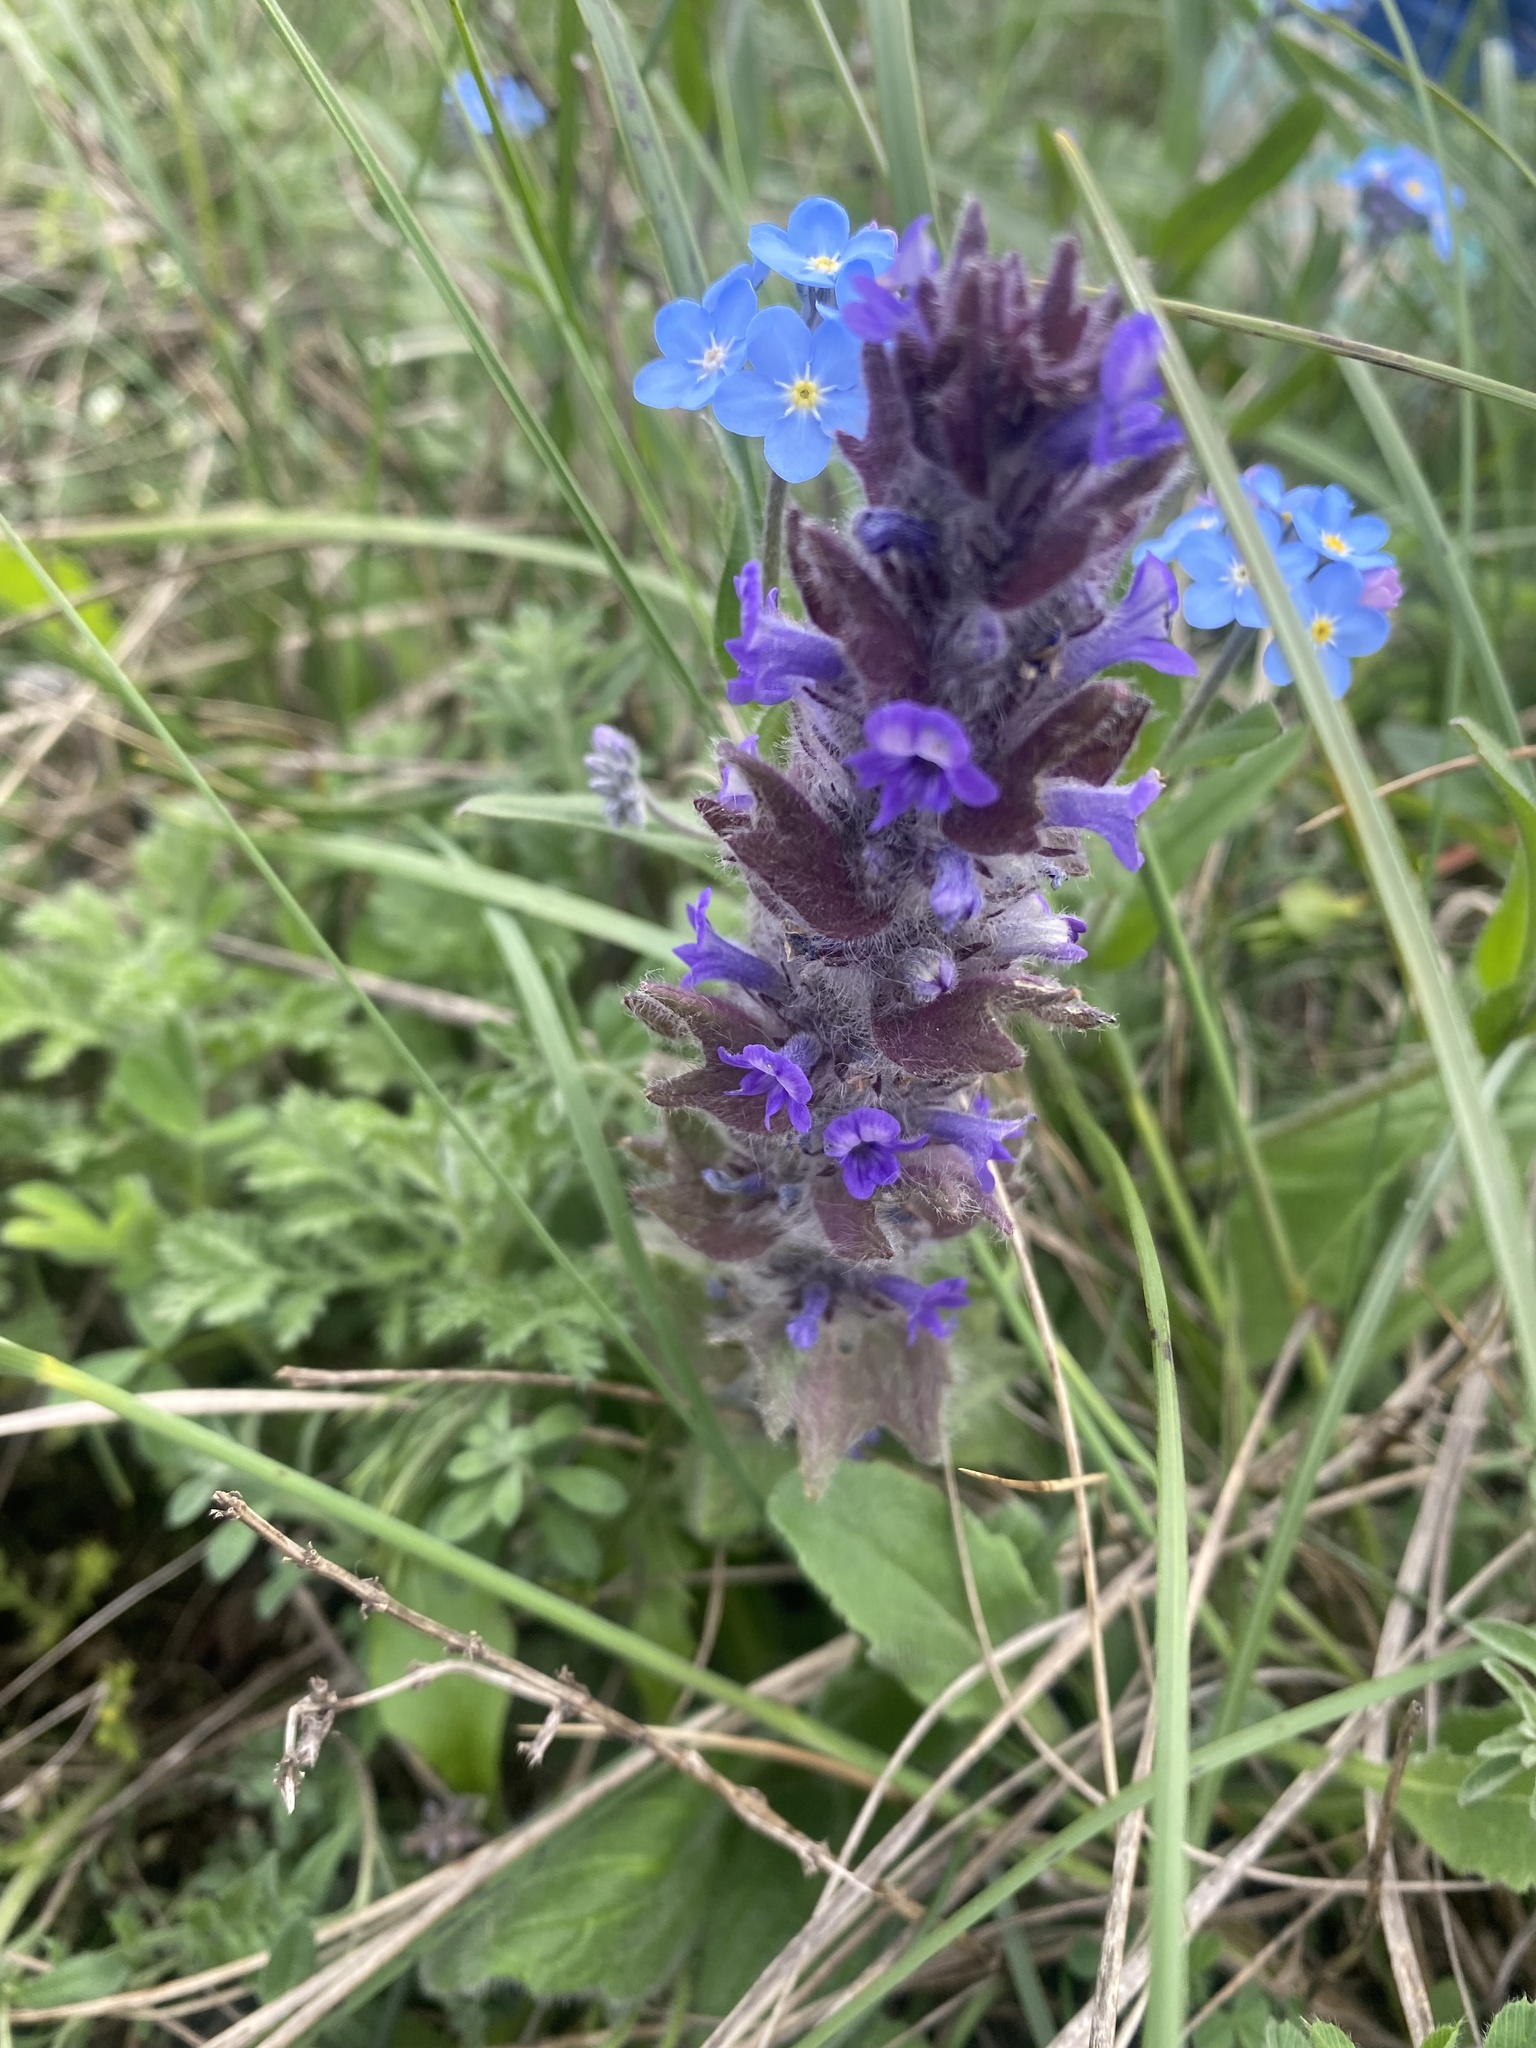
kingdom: Plantae
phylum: Tracheophyta
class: Magnoliopsida
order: Lamiales
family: Lamiaceae
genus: Ajuga
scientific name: Ajuga orientalis
